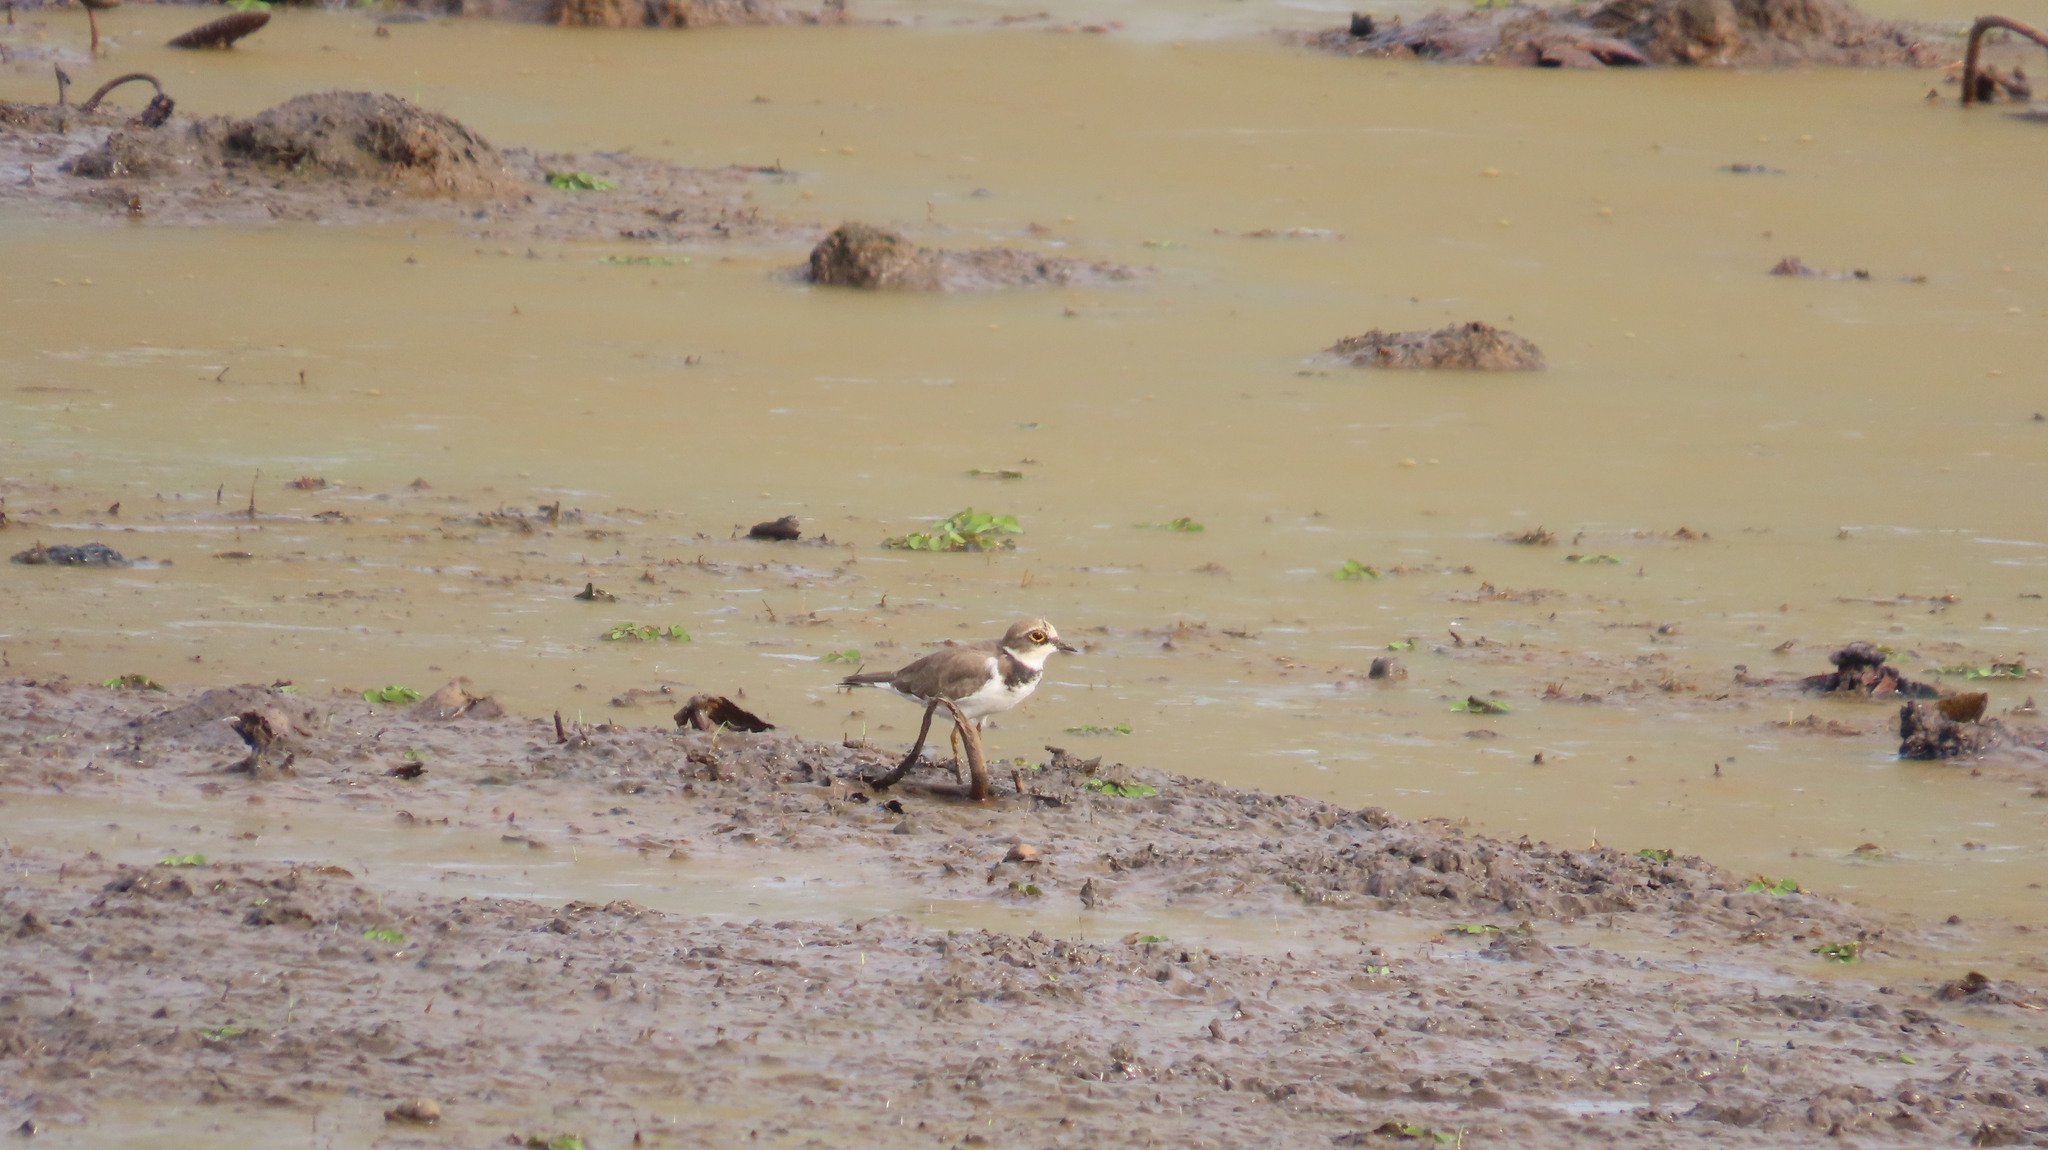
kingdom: Animalia
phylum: Chordata
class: Aves
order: Charadriiformes
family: Charadriidae
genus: Charadrius
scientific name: Charadrius dubius
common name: Little ringed plover
